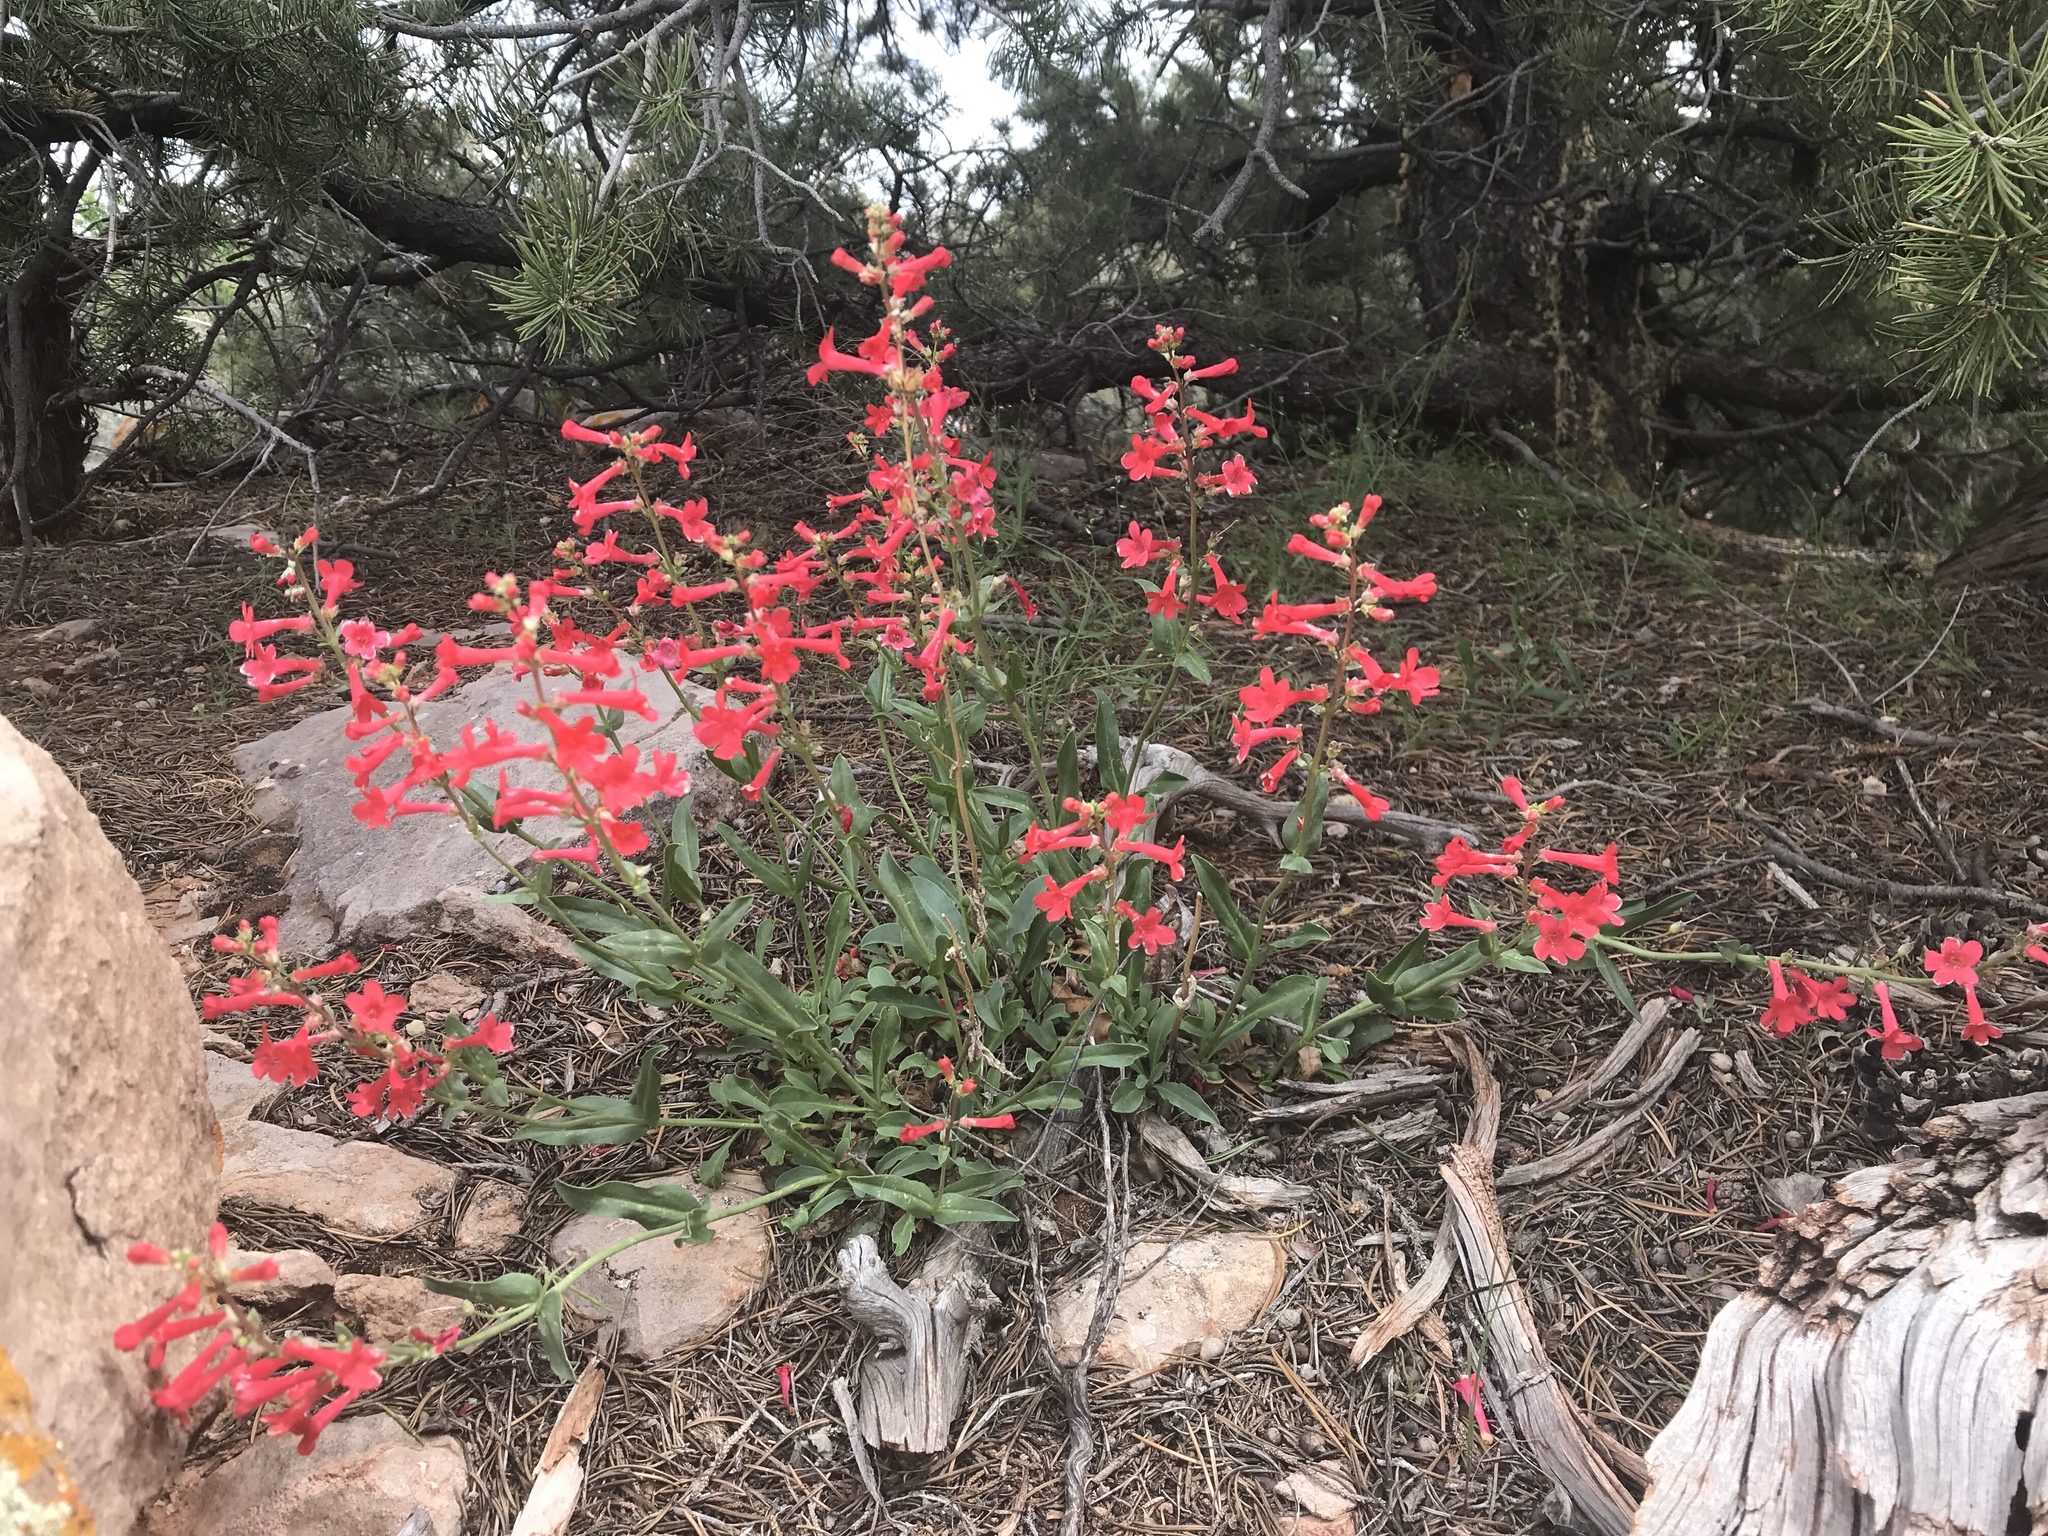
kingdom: Plantae
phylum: Tracheophyta
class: Magnoliopsida
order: Lamiales
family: Plantaginaceae
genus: Penstemon
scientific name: Penstemon utahensis
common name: Utah penstemon
